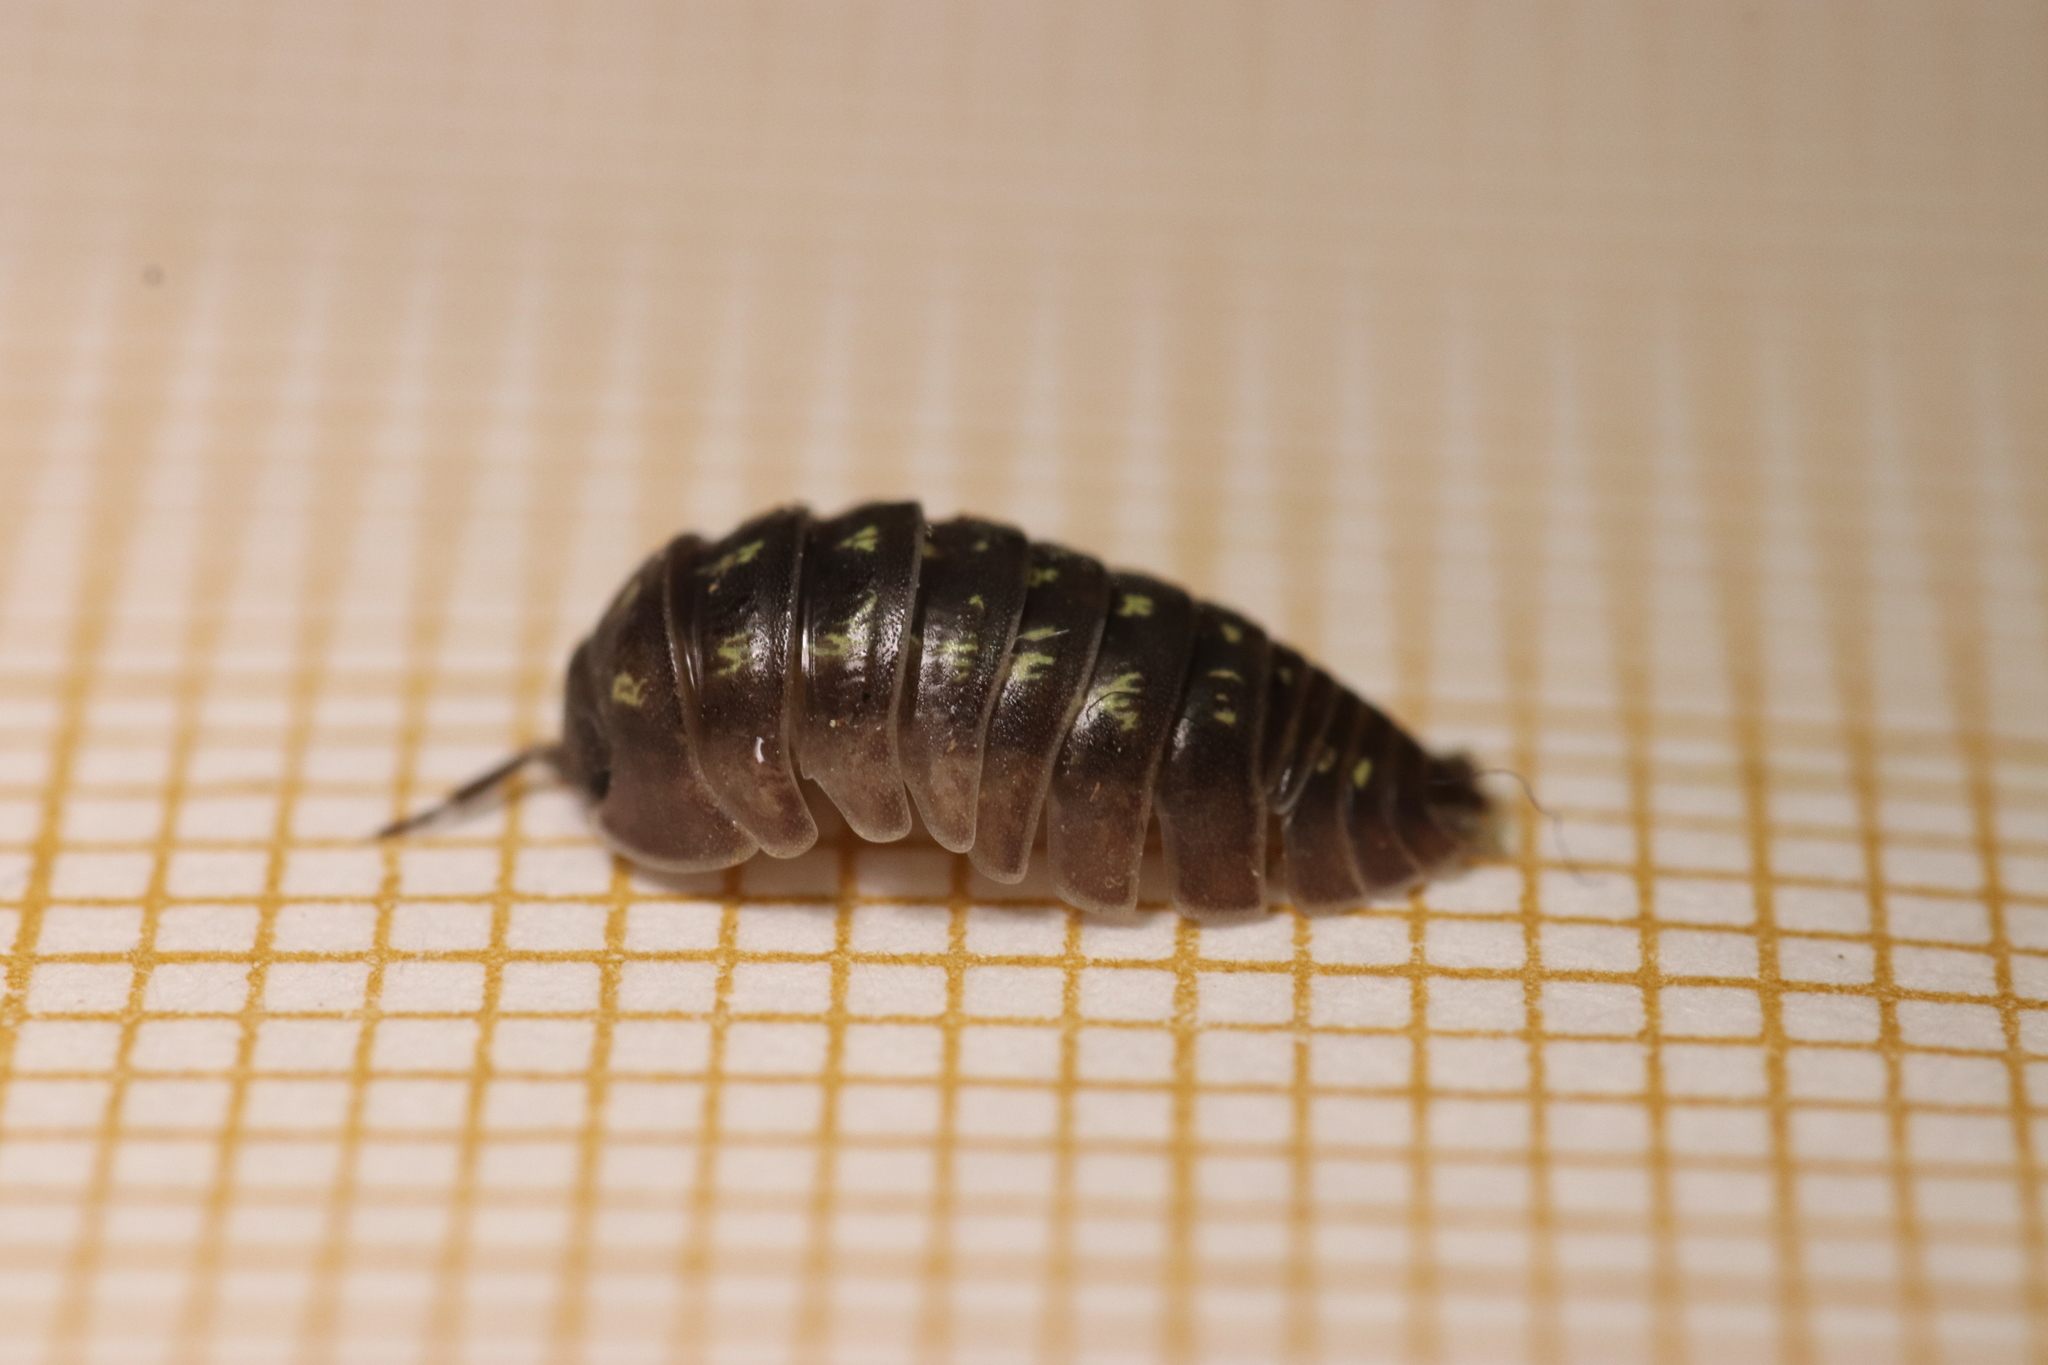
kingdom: Animalia
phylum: Arthropoda
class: Malacostraca
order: Isopoda
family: Armadillidiidae
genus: Armadillidium
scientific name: Armadillidium depressum
